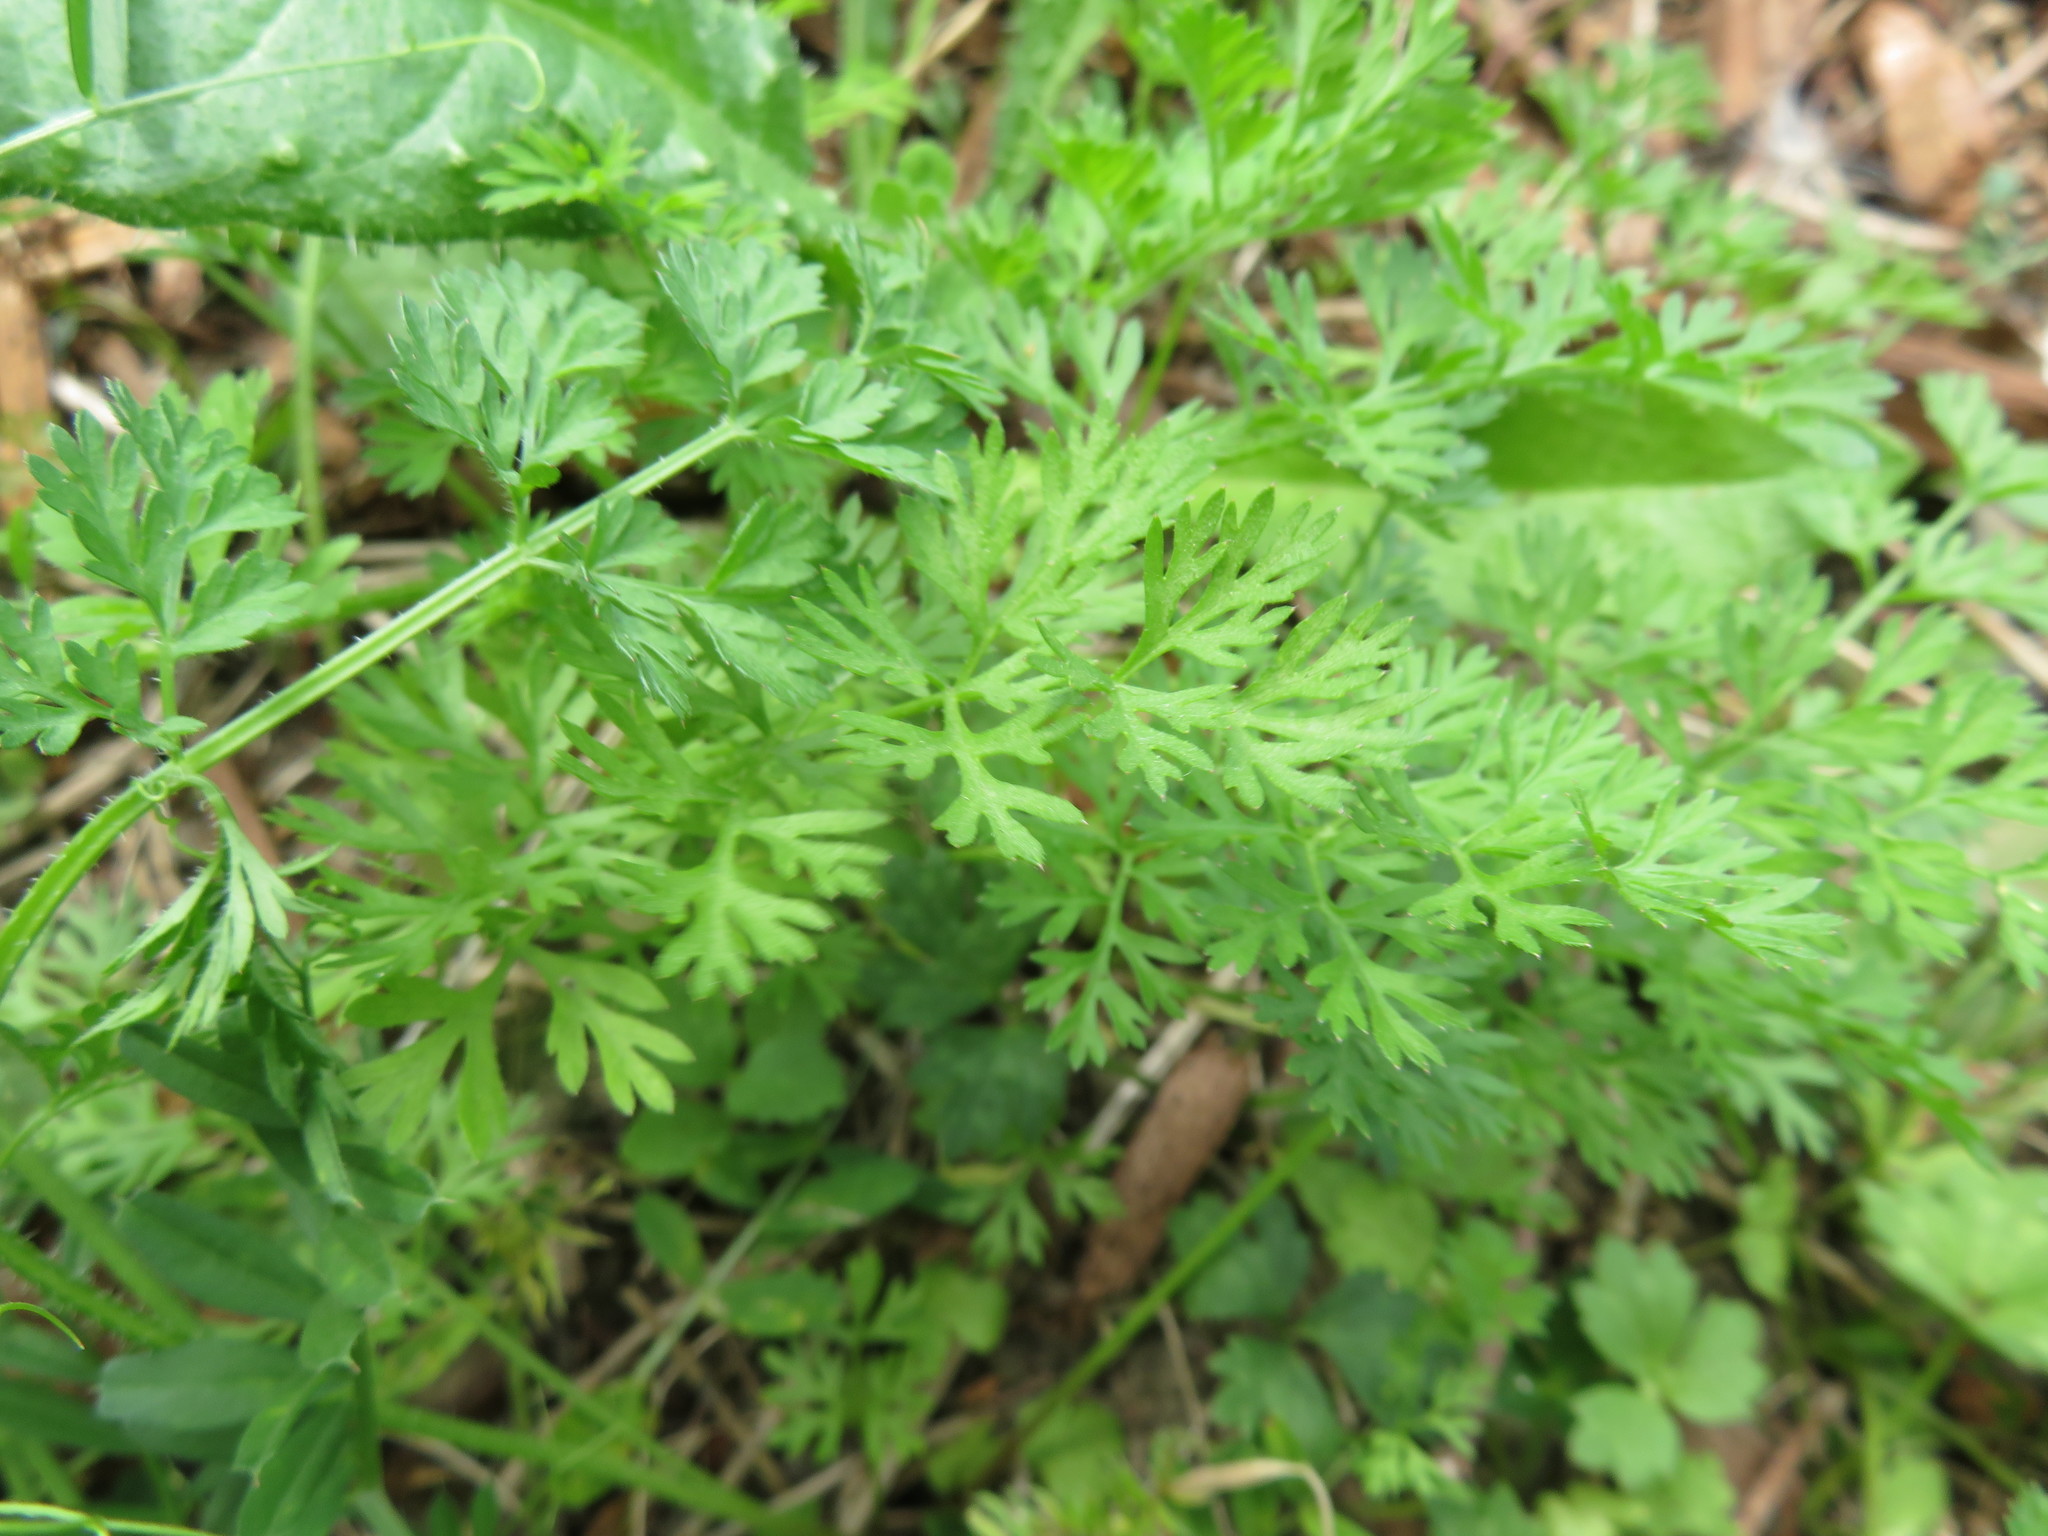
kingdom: Plantae
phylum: Tracheophyta
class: Magnoliopsida
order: Apiales
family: Apiaceae
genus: Daucus
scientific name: Daucus carota
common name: Wild carrot
